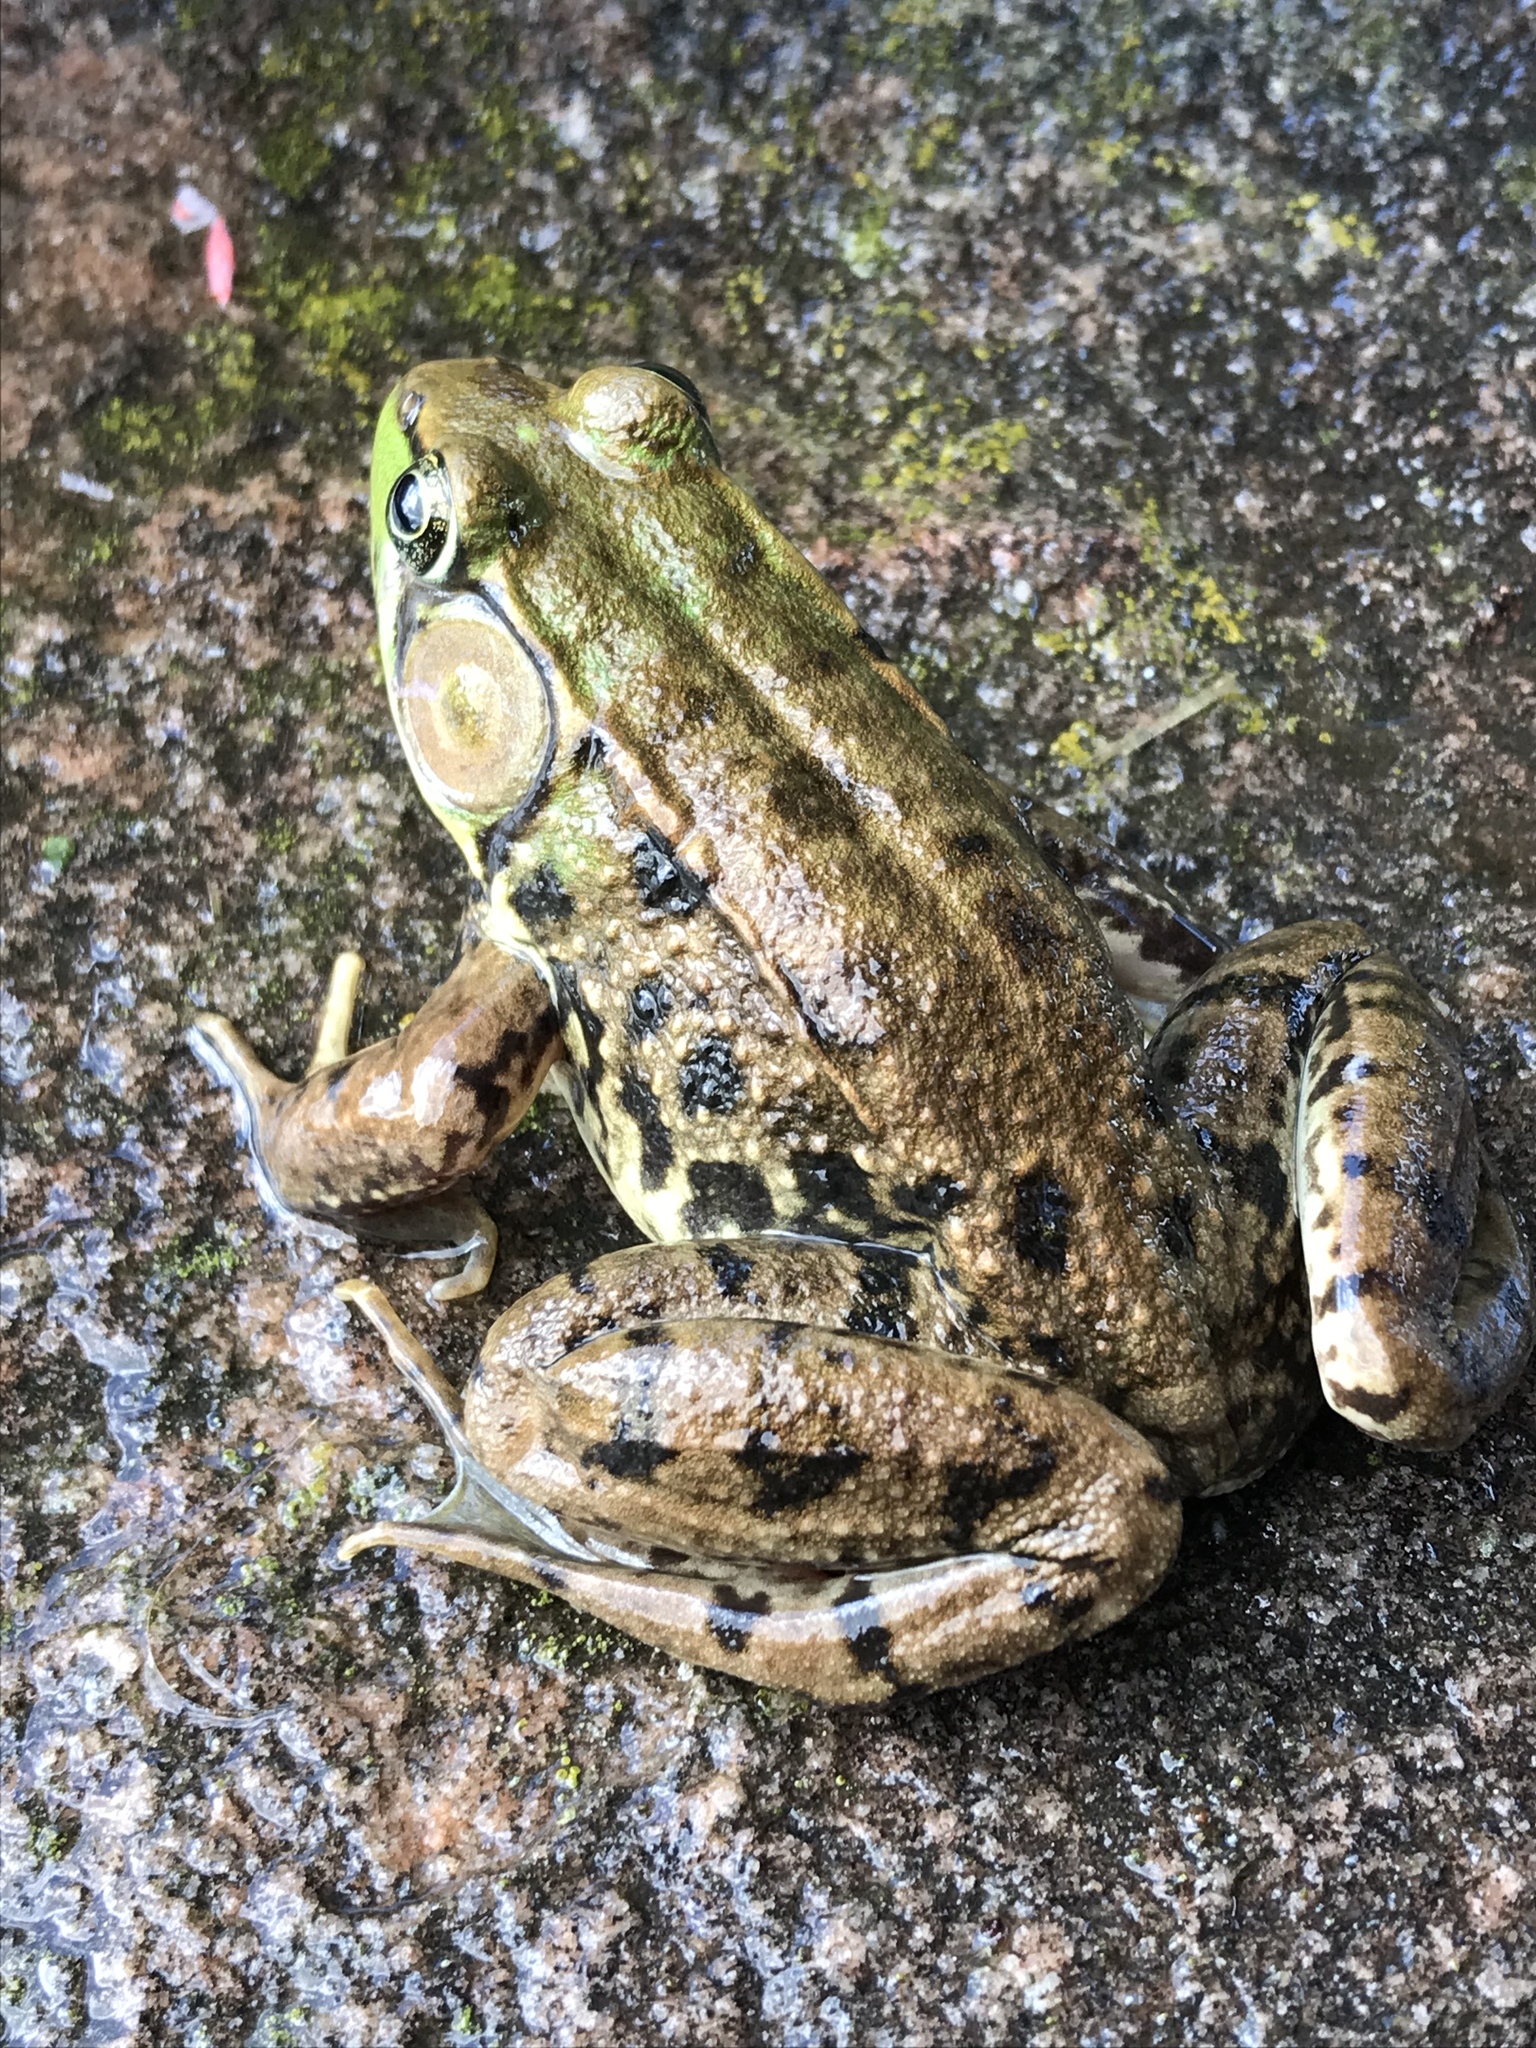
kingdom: Animalia
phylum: Chordata
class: Amphibia
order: Anura
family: Ranidae
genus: Lithobates
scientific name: Lithobates clamitans
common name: Green frog
